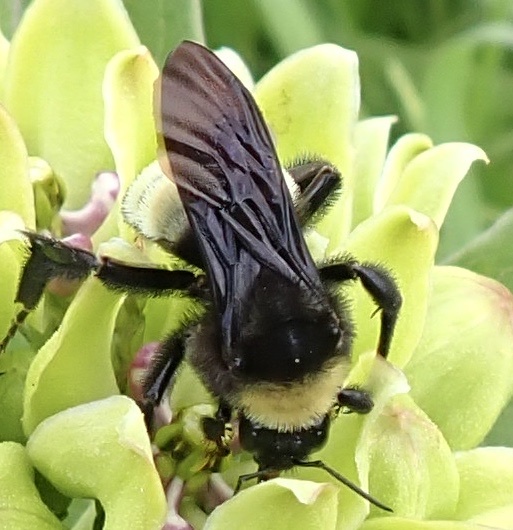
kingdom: Animalia
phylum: Arthropoda
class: Insecta
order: Hymenoptera
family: Apidae
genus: Bombus
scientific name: Bombus pensylvanicus
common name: Bumble bee
